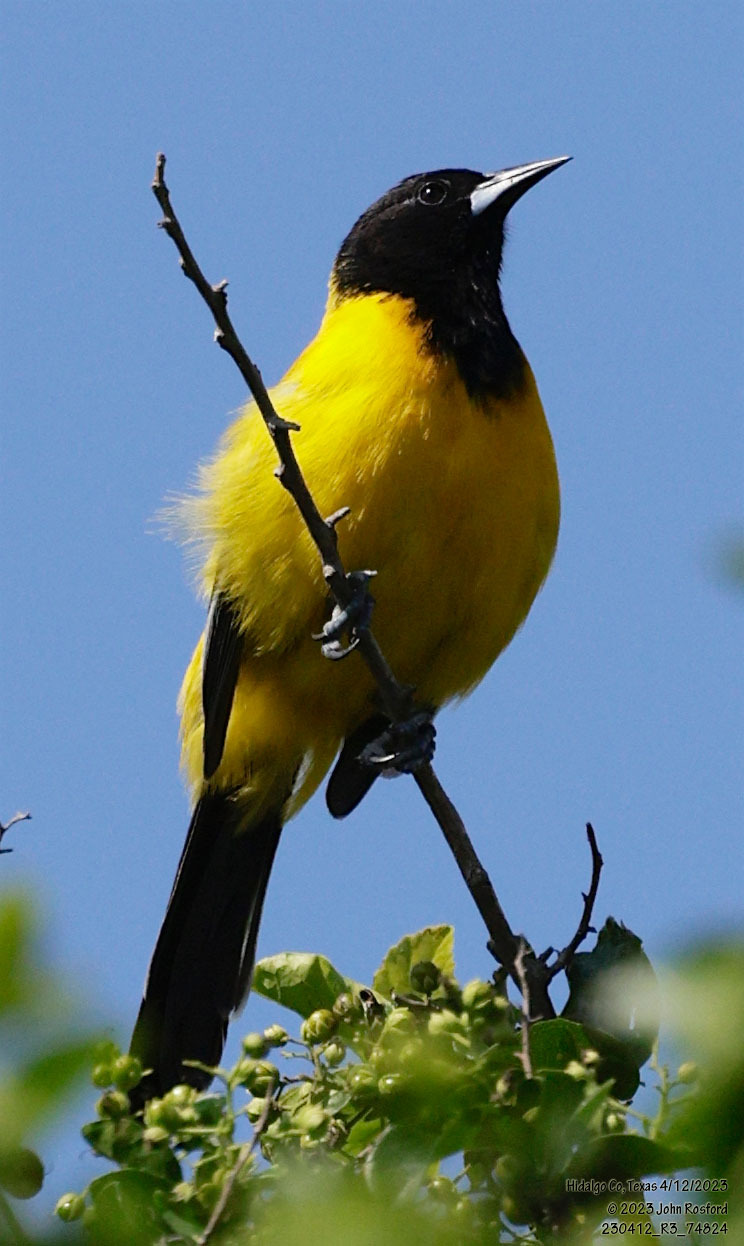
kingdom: Animalia
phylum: Chordata
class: Aves
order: Passeriformes
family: Icteridae
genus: Icterus
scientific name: Icterus graduacauda
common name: Audubon's oriole
